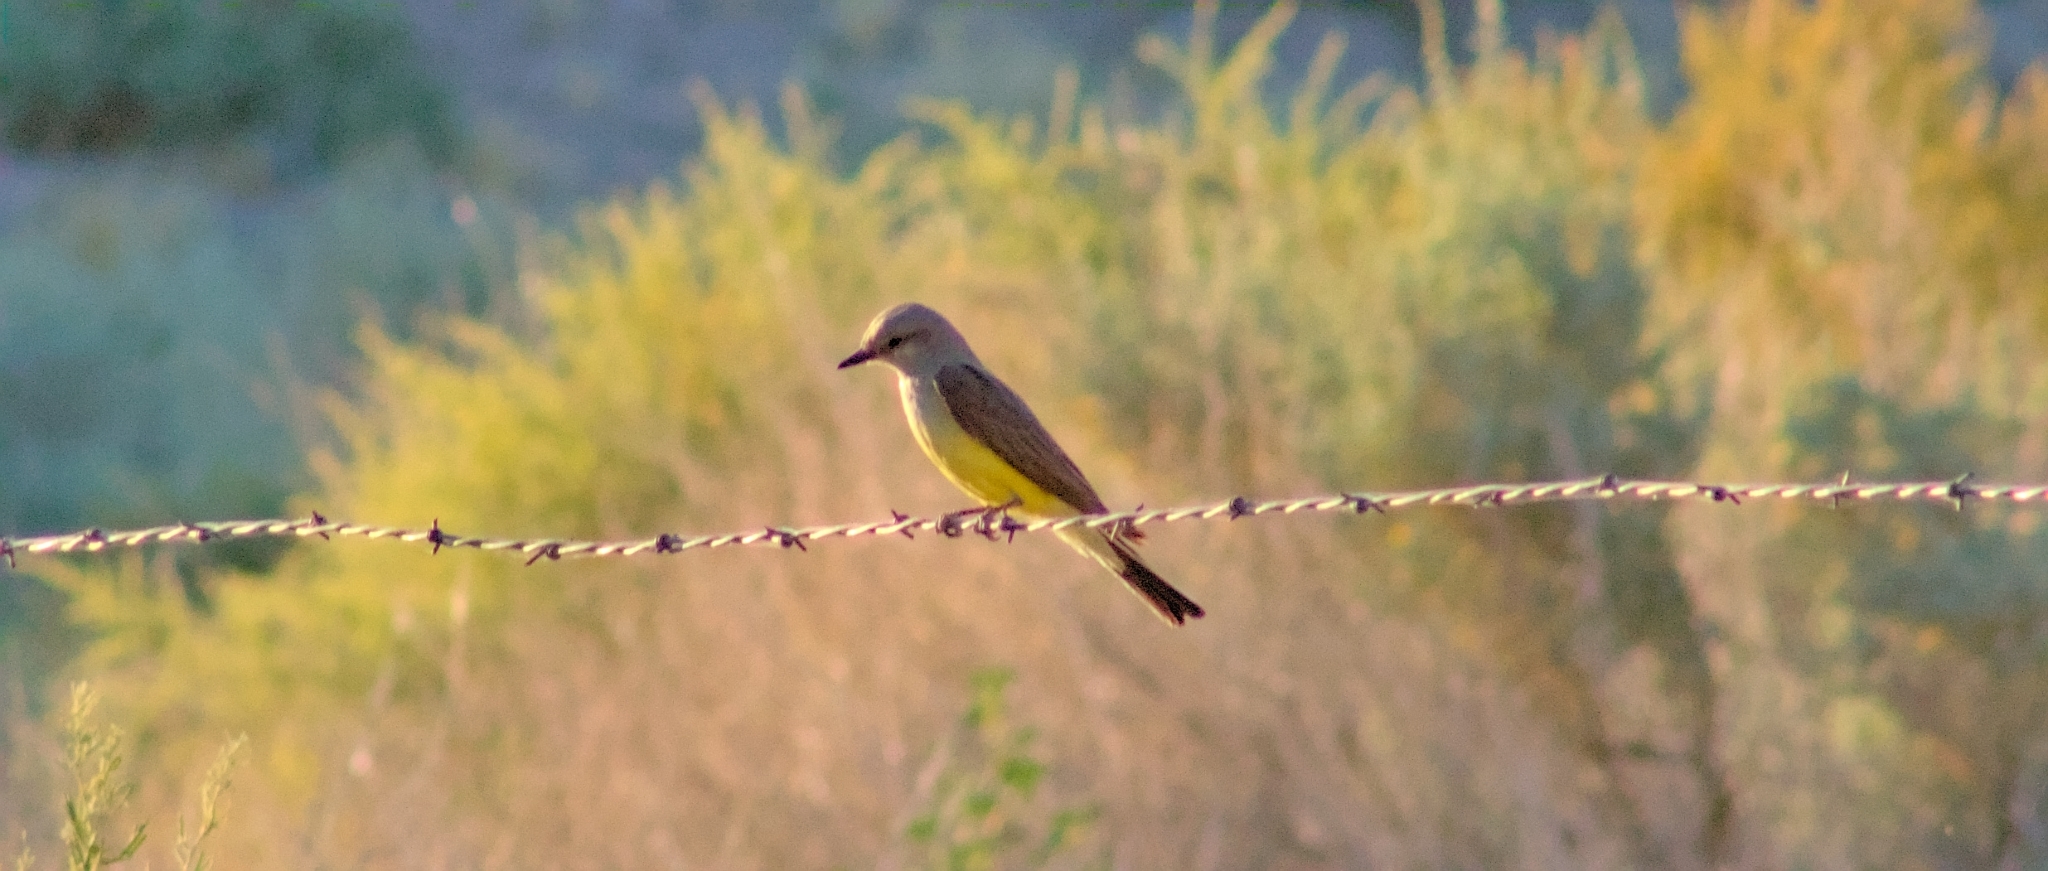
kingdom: Animalia
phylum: Chordata
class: Aves
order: Passeriformes
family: Tyrannidae
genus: Tyrannus
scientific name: Tyrannus verticalis
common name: Western kingbird
